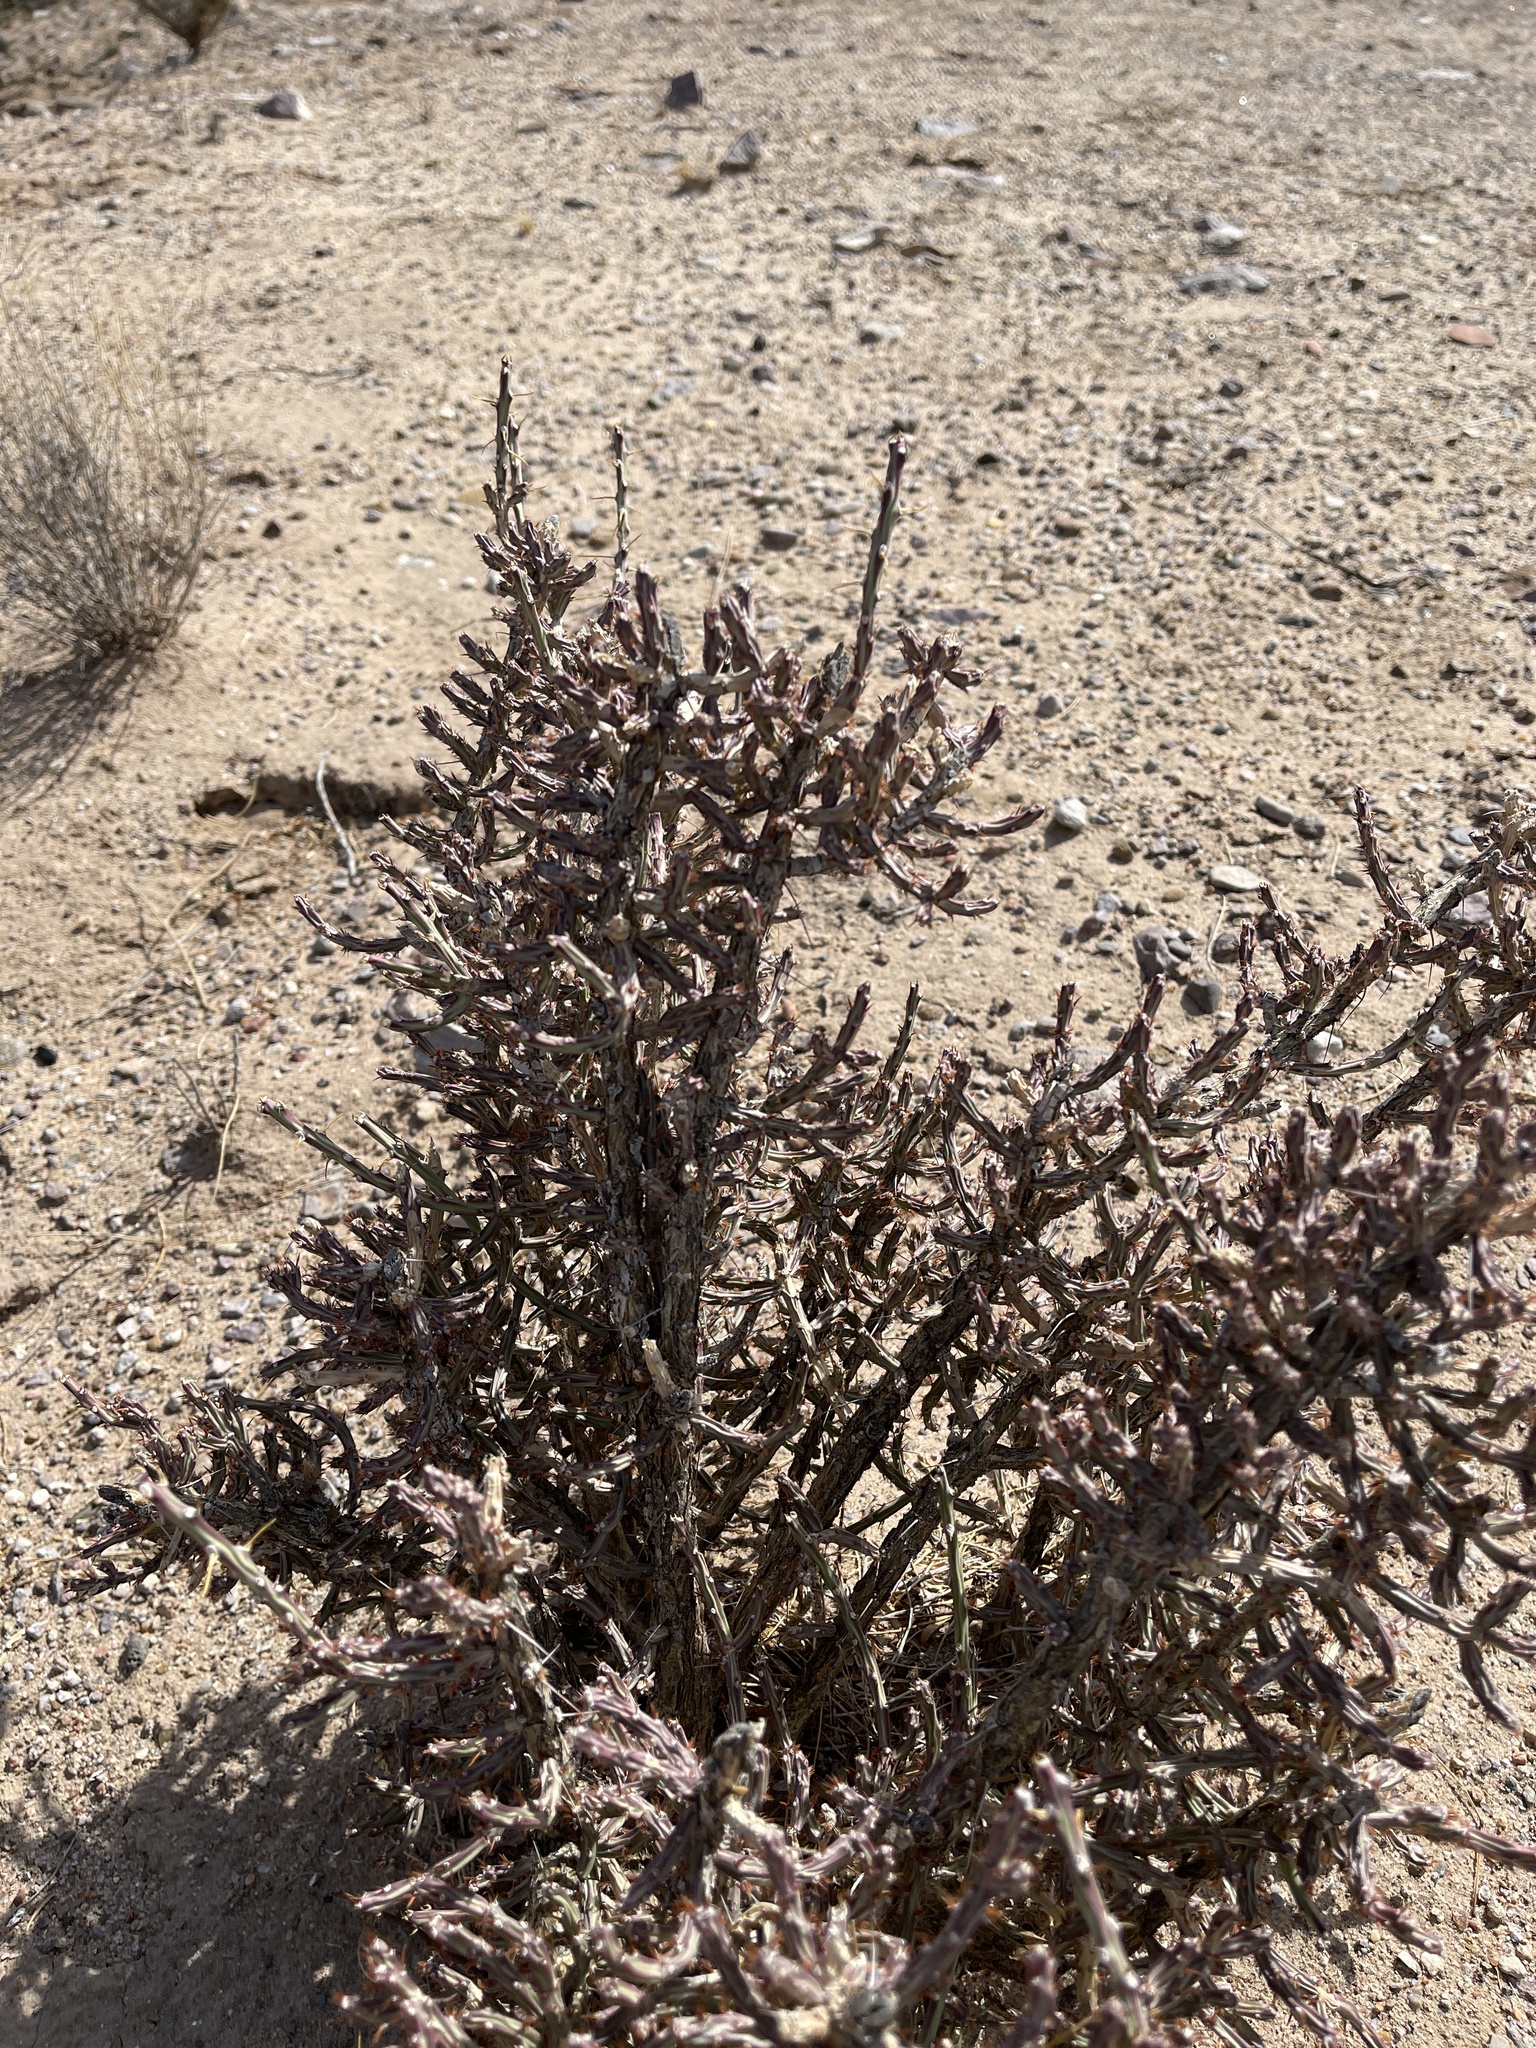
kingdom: Plantae
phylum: Tracheophyta
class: Magnoliopsida
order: Caryophyllales
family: Cactaceae
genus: Cylindropuntia
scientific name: Cylindropuntia leptocaulis
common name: Christmas cactus
